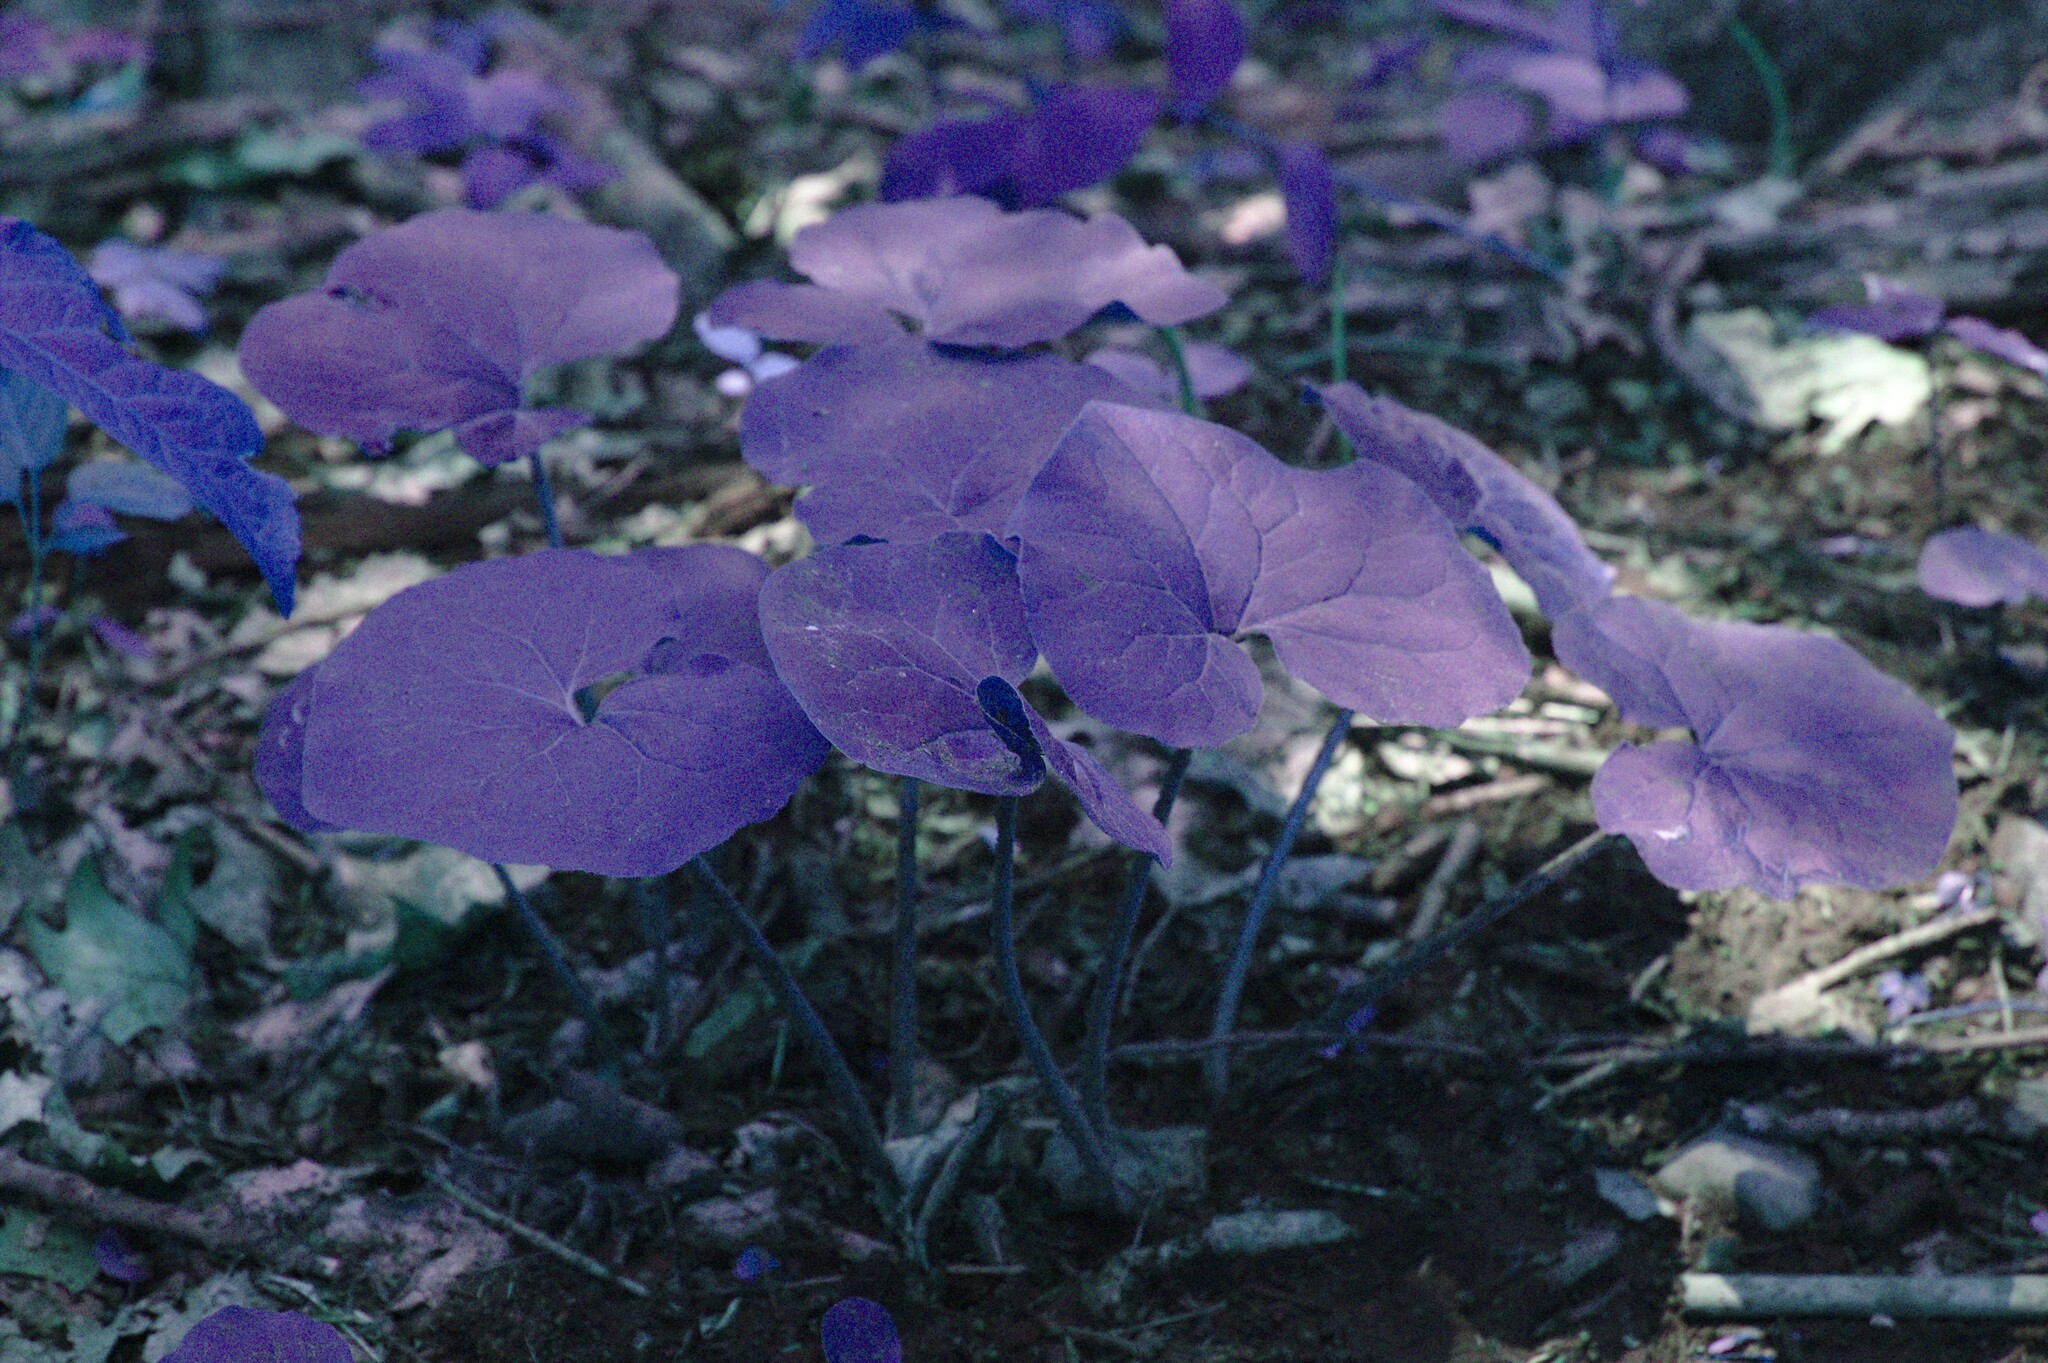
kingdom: Plantae
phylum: Tracheophyta
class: Magnoliopsida
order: Piperales
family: Aristolochiaceae
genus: Asarum
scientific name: Asarum canadense
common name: Wild ginger
